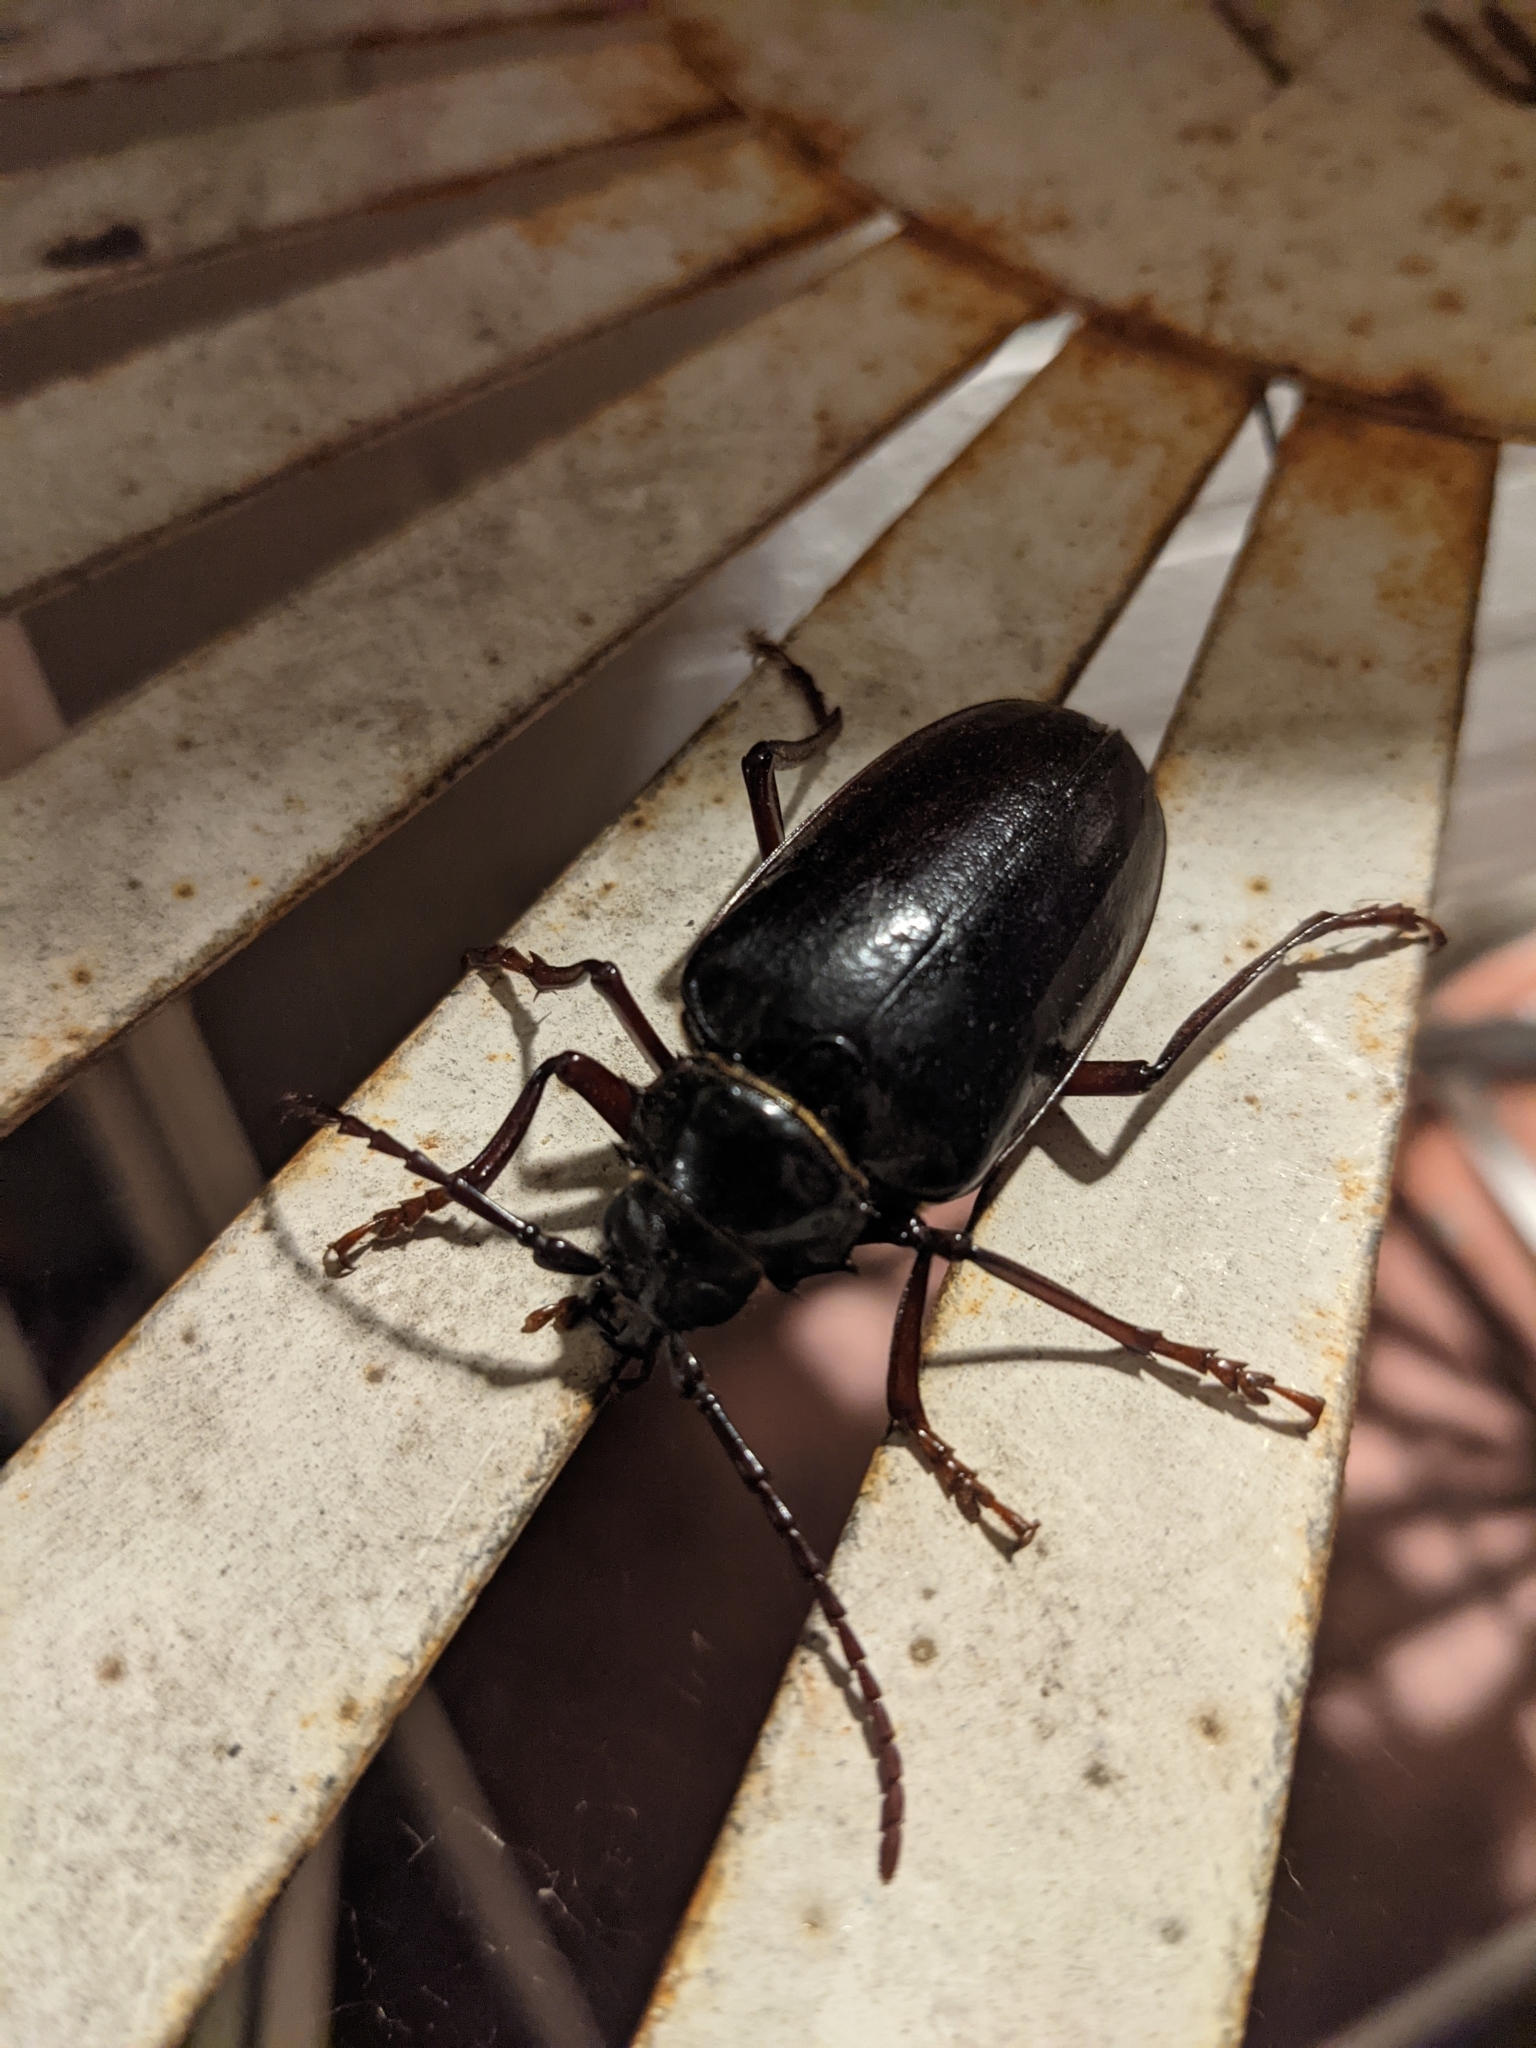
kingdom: Animalia
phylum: Arthropoda
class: Insecta
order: Coleoptera
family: Cerambycidae
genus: Prionus
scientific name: Prionus californicus
